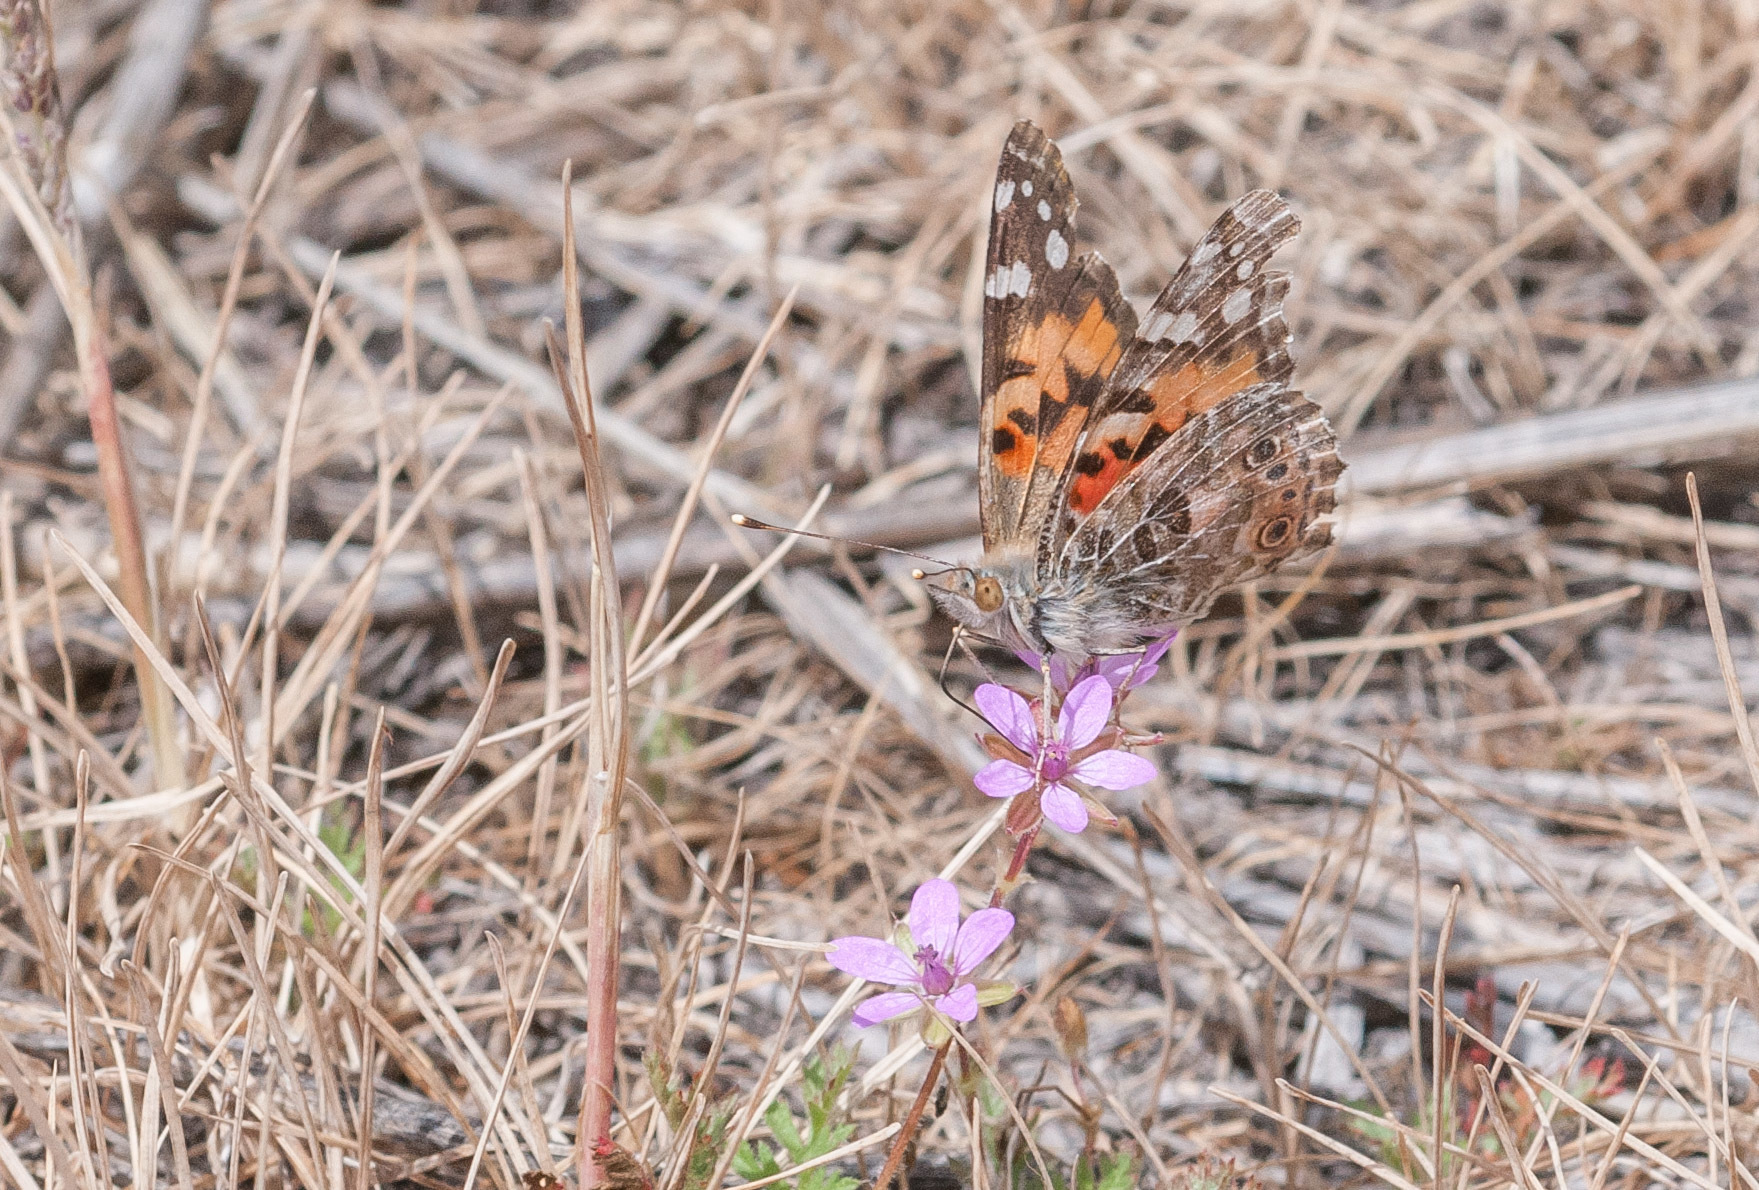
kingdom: Animalia
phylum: Arthropoda
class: Insecta
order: Lepidoptera
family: Nymphalidae
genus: Vanessa
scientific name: Vanessa cardui
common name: Painted lady
